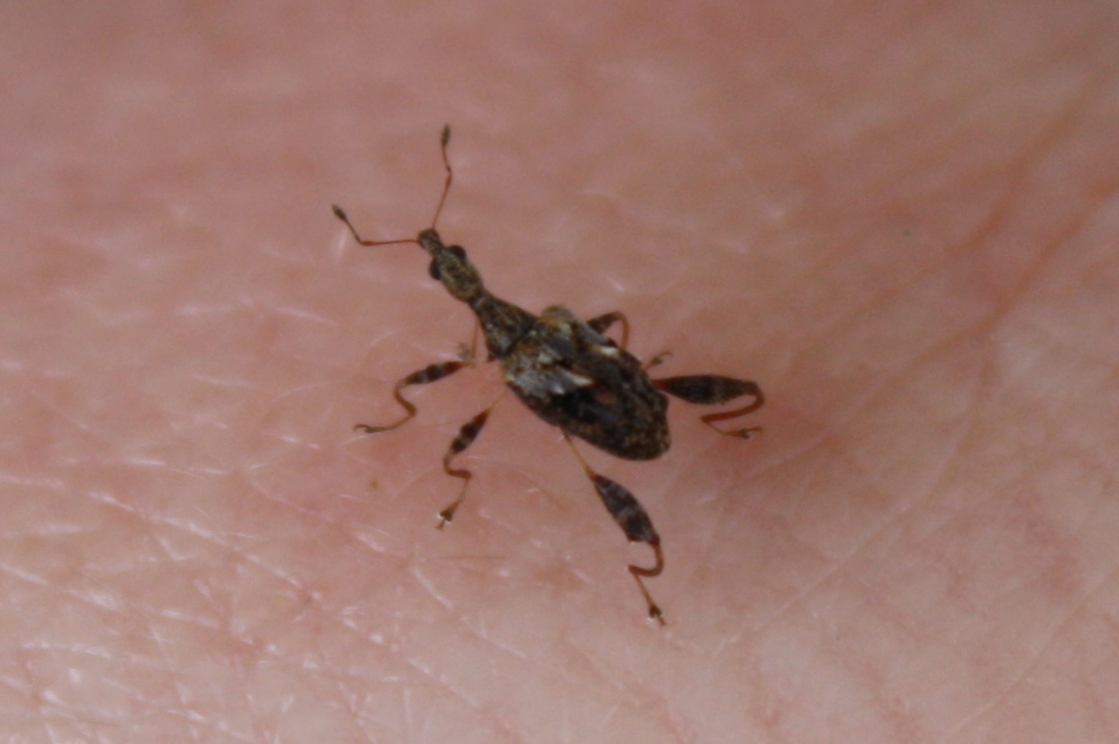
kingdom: Animalia
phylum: Arthropoda
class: Insecta
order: Coleoptera
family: Curculionidae
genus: Stephanorhynchus
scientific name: Stephanorhynchus lawsoni
